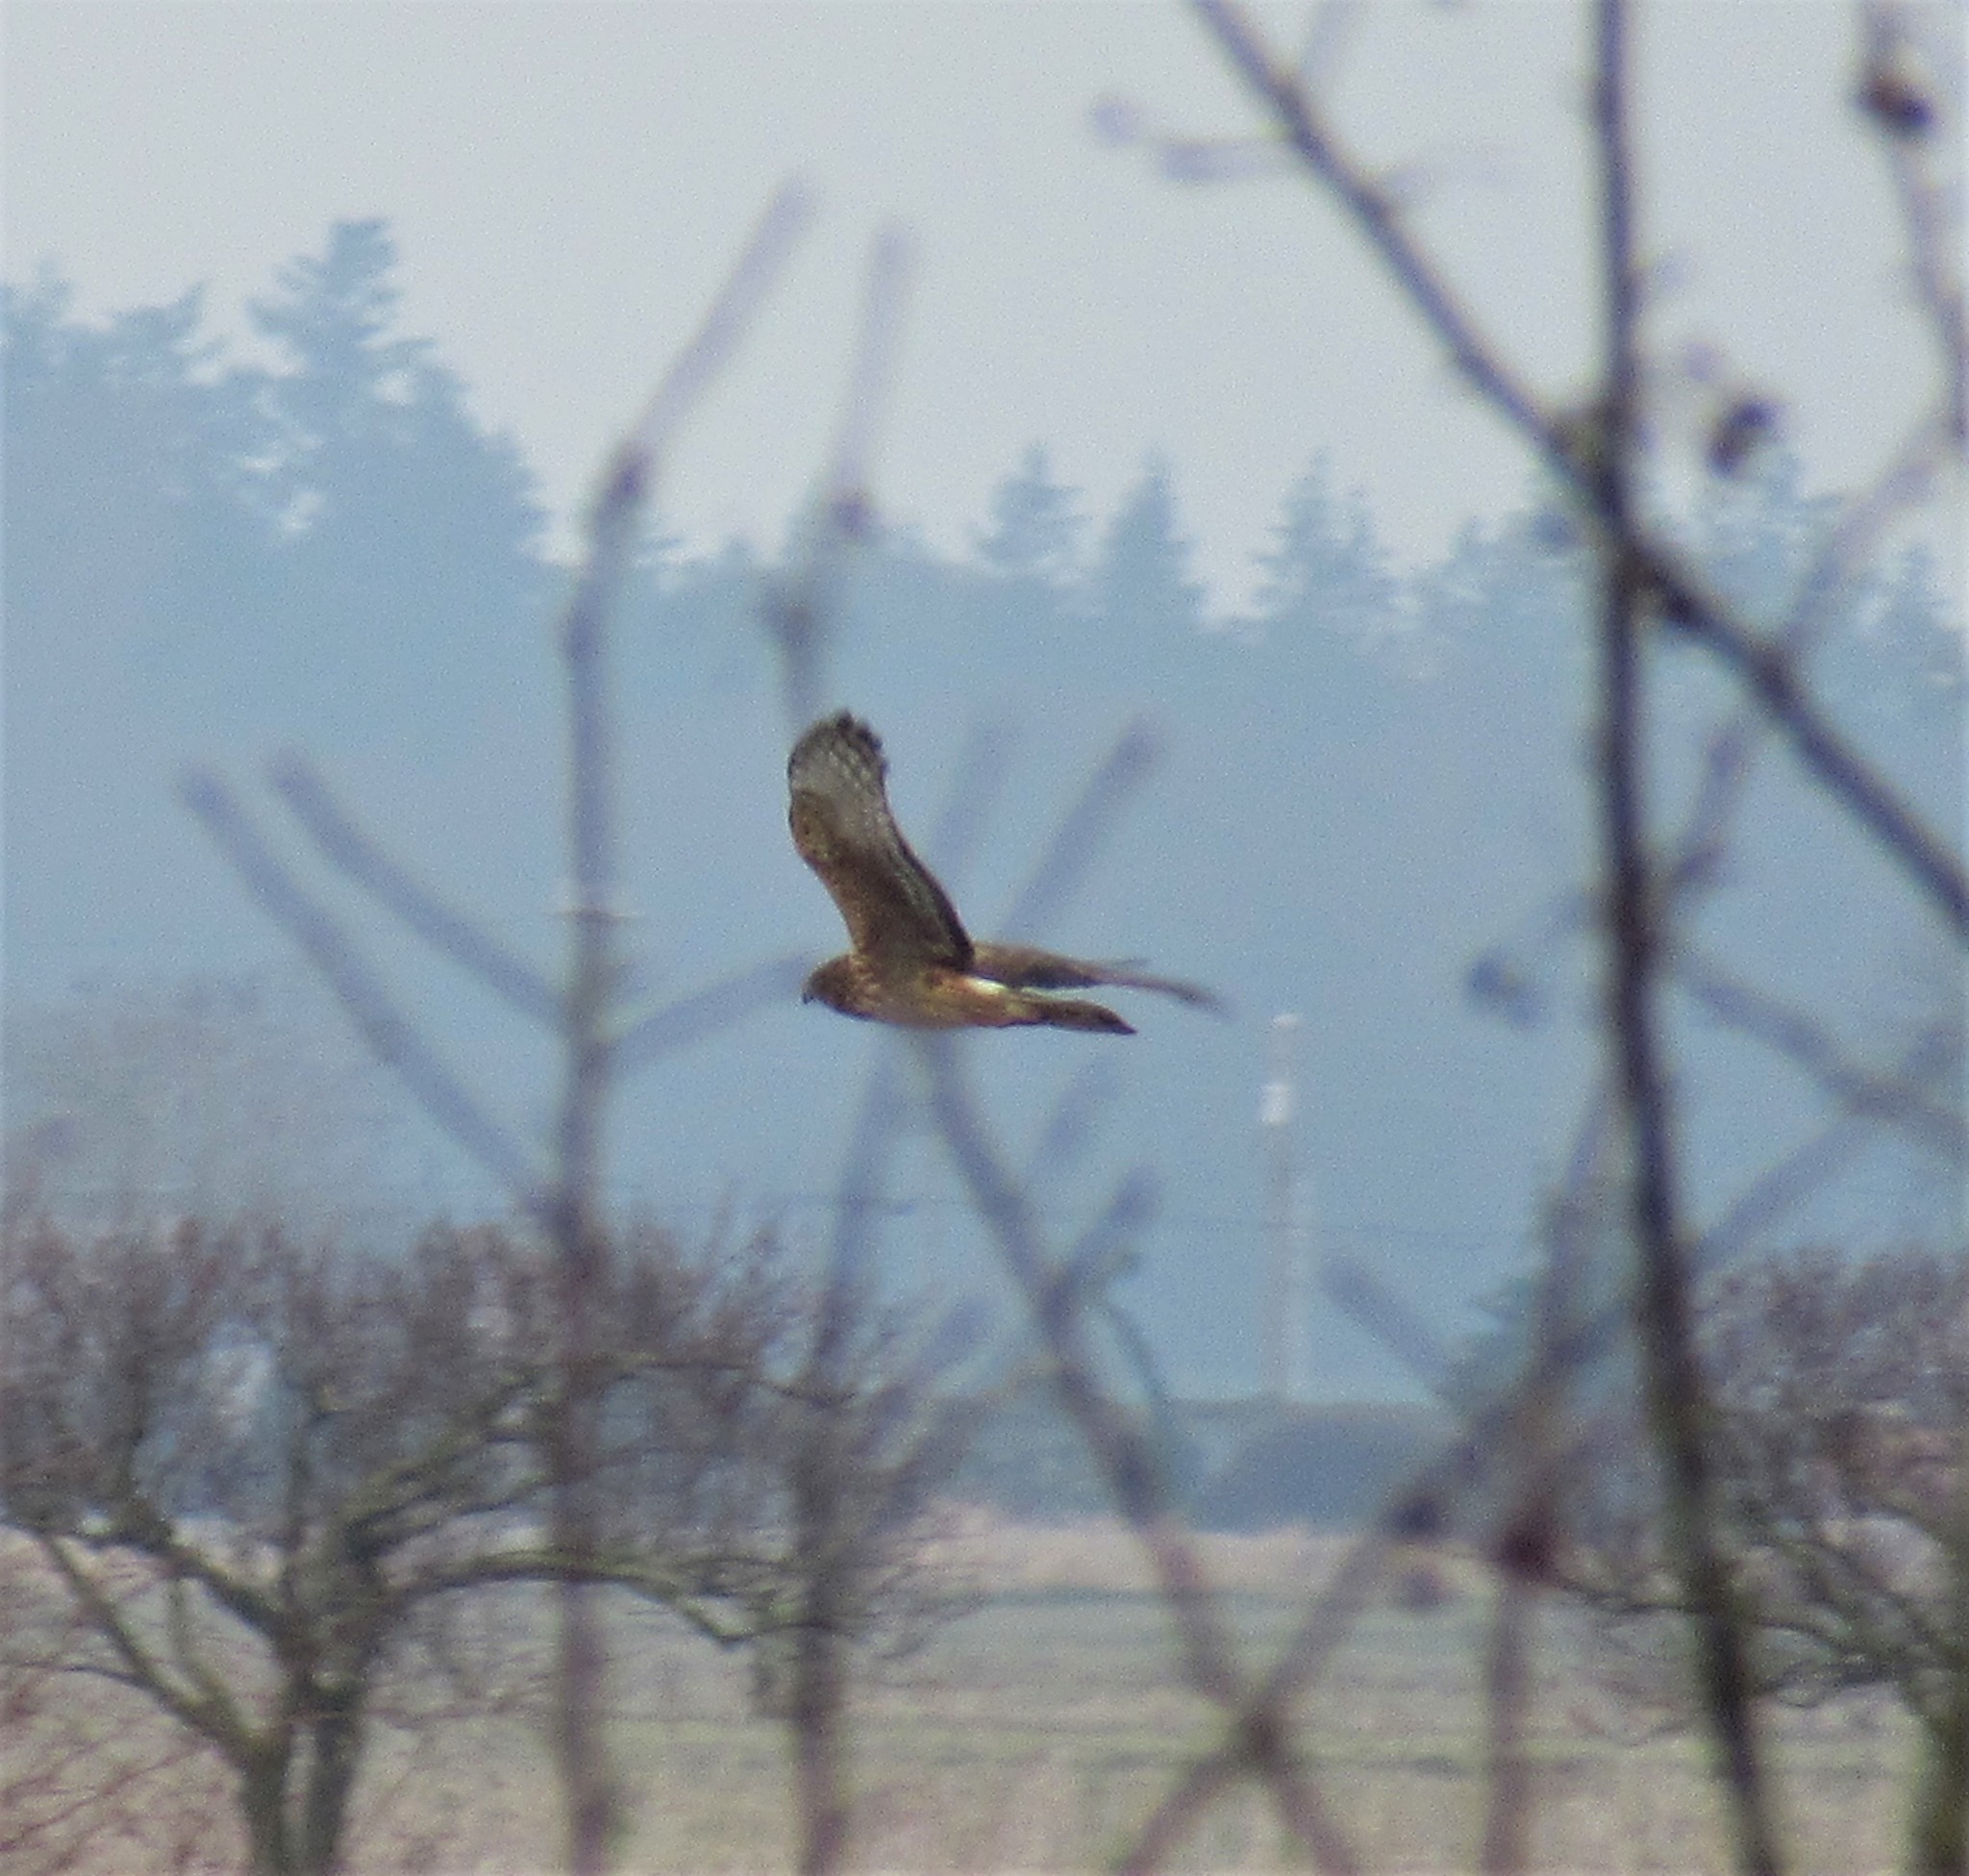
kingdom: Animalia
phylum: Chordata
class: Aves
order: Accipitriformes
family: Accipitridae
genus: Circus
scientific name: Circus cyaneus
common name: Hen harrier
